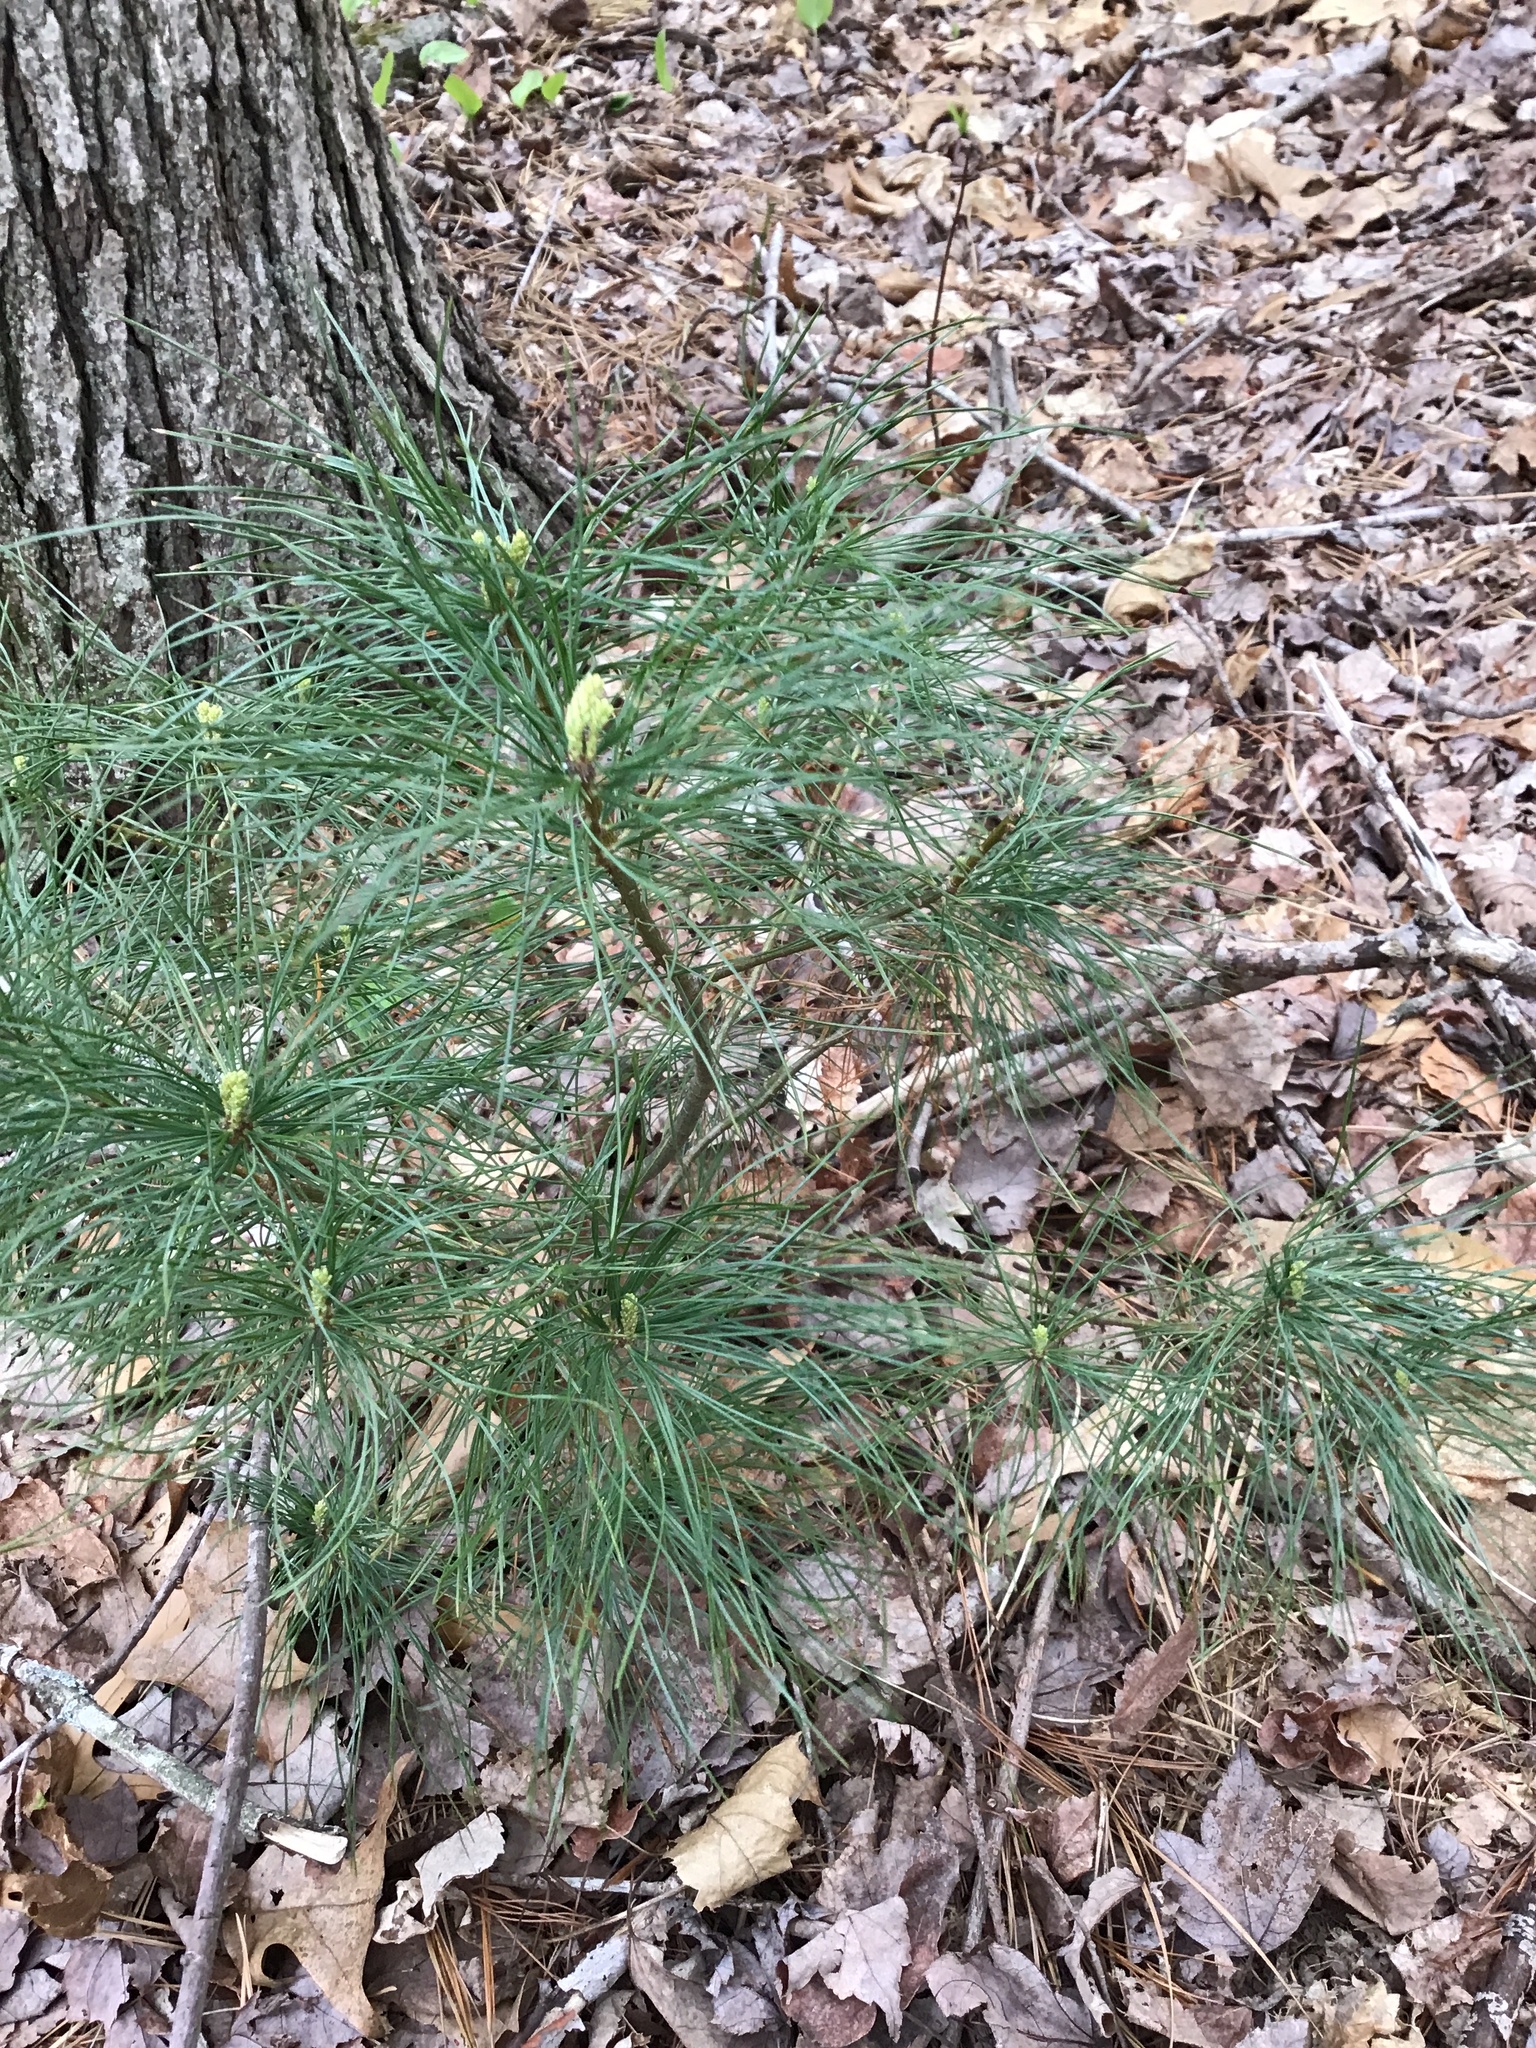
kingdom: Plantae
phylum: Tracheophyta
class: Pinopsida
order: Pinales
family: Pinaceae
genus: Pinus
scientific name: Pinus strobus
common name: Weymouth pine
